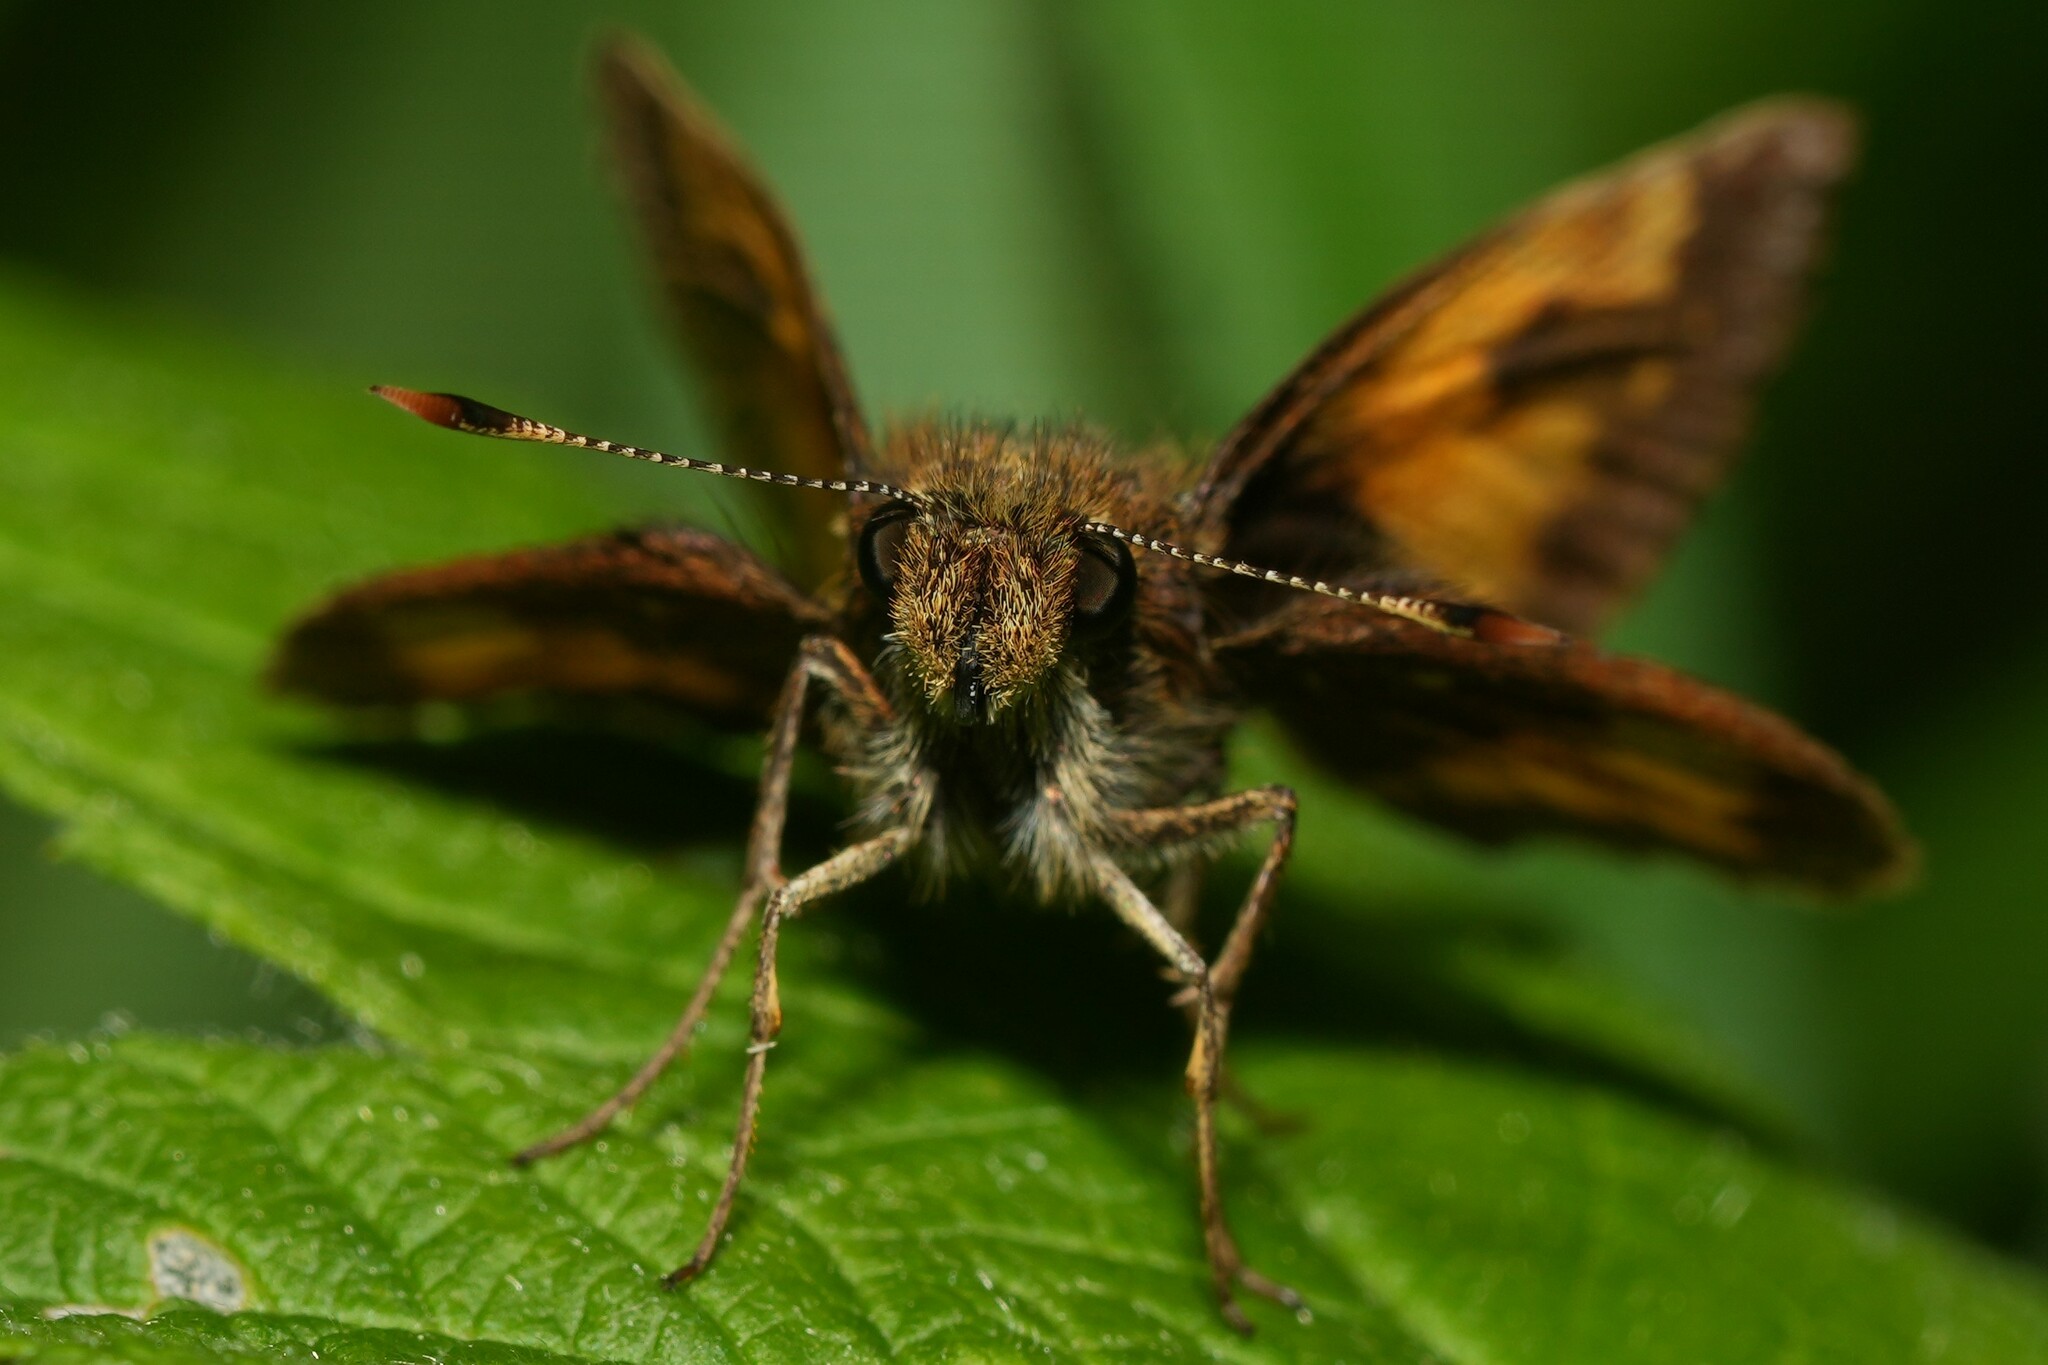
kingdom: Animalia
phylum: Arthropoda
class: Insecta
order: Lepidoptera
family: Hesperiidae
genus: Lon
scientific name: Lon hobomok
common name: Hobomok skipper
